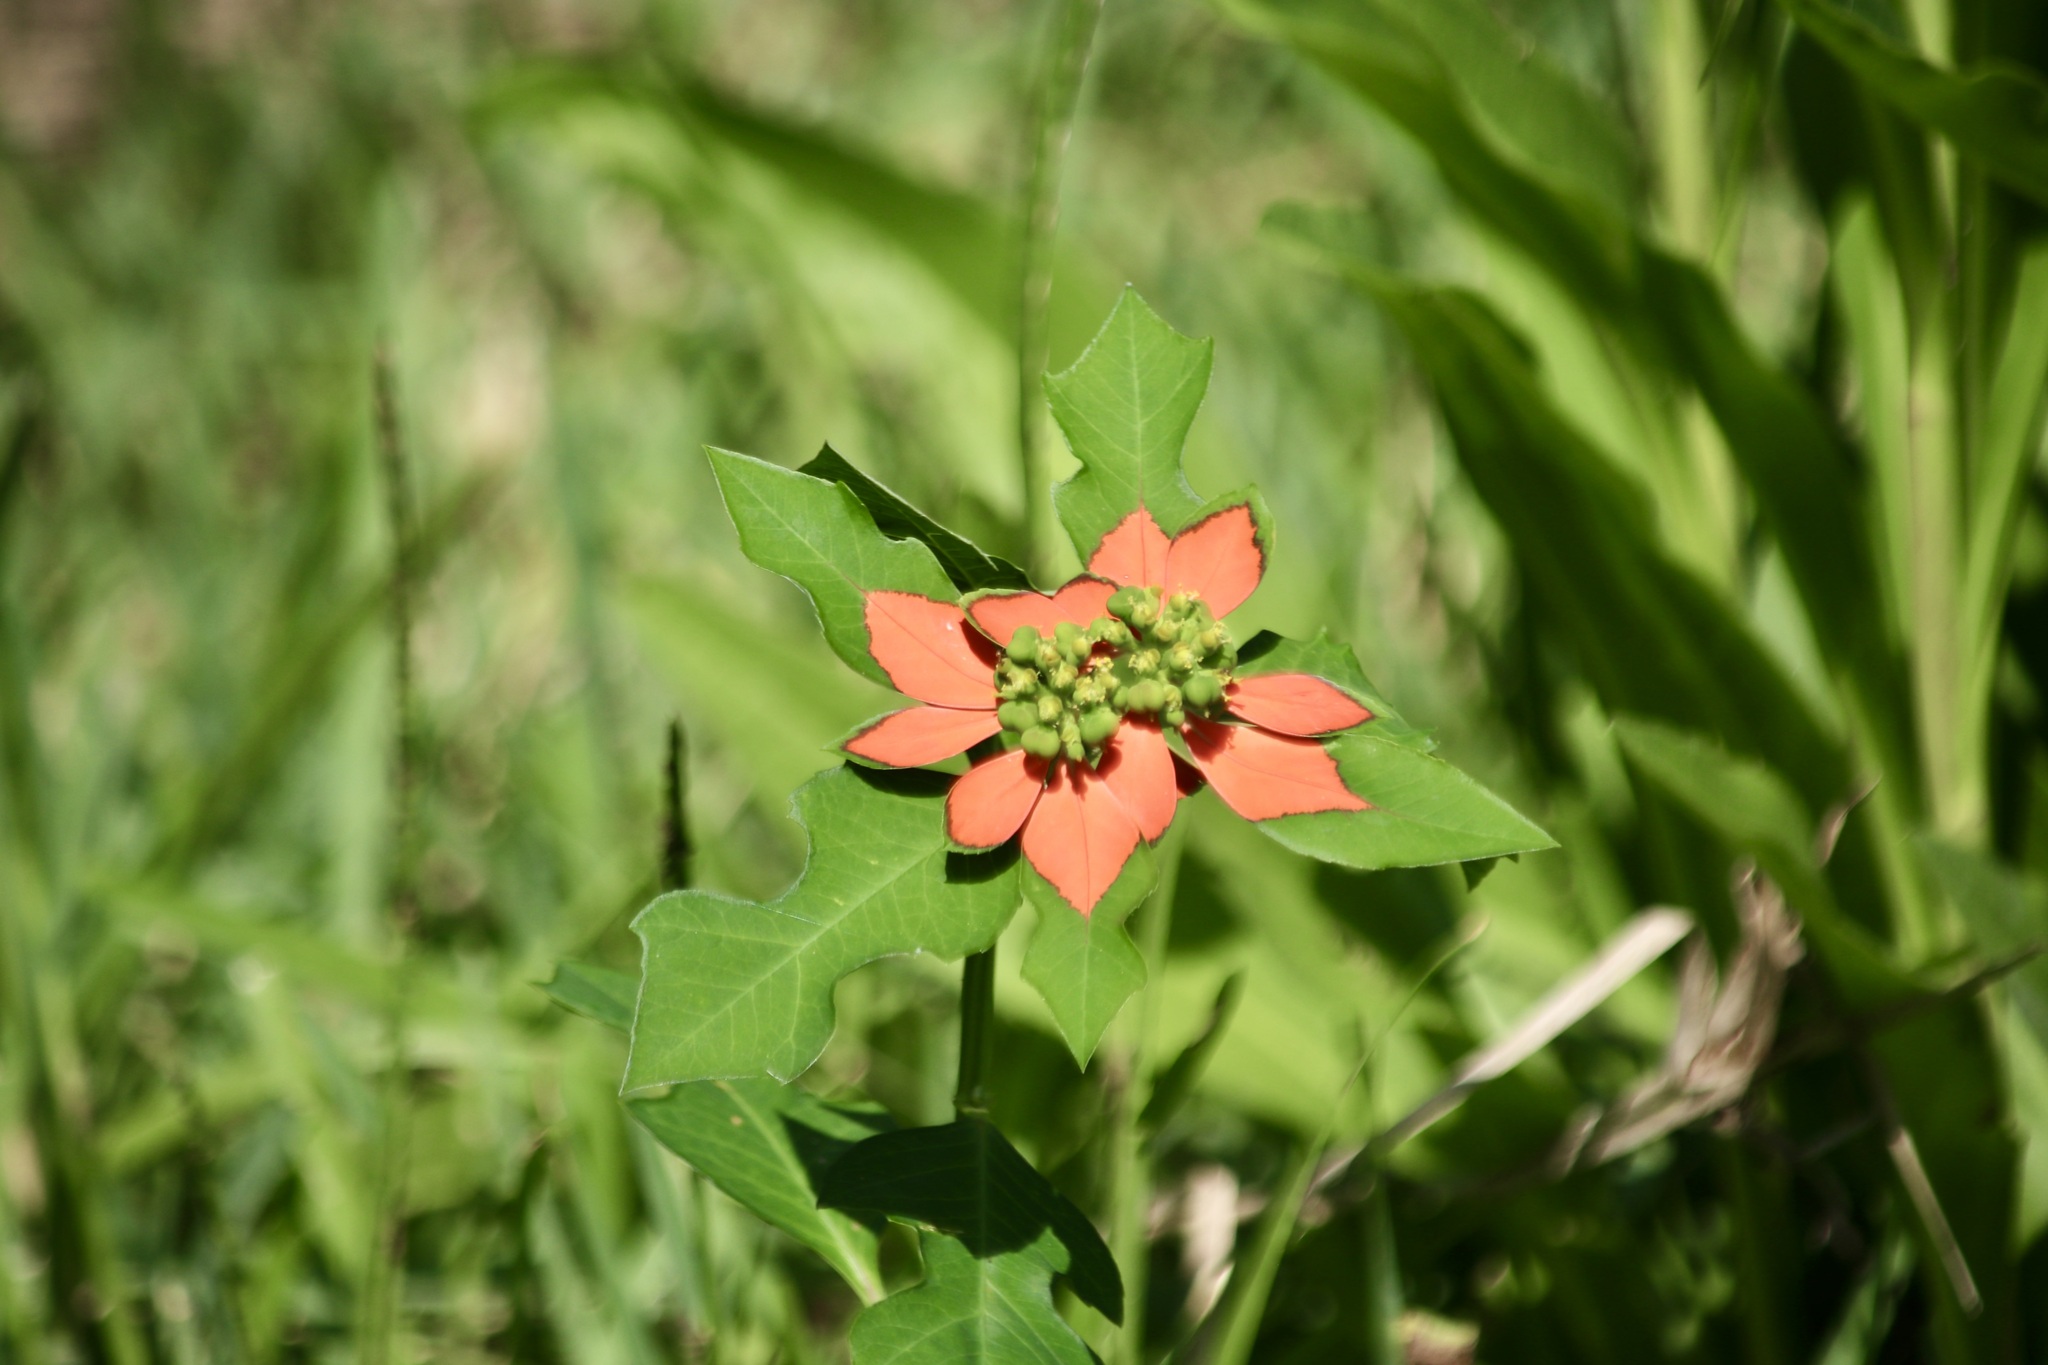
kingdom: Plantae
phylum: Tracheophyta
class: Magnoliopsida
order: Malpighiales
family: Euphorbiaceae
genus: Euphorbia
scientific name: Euphorbia heterophylla
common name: Mexican fireplant
